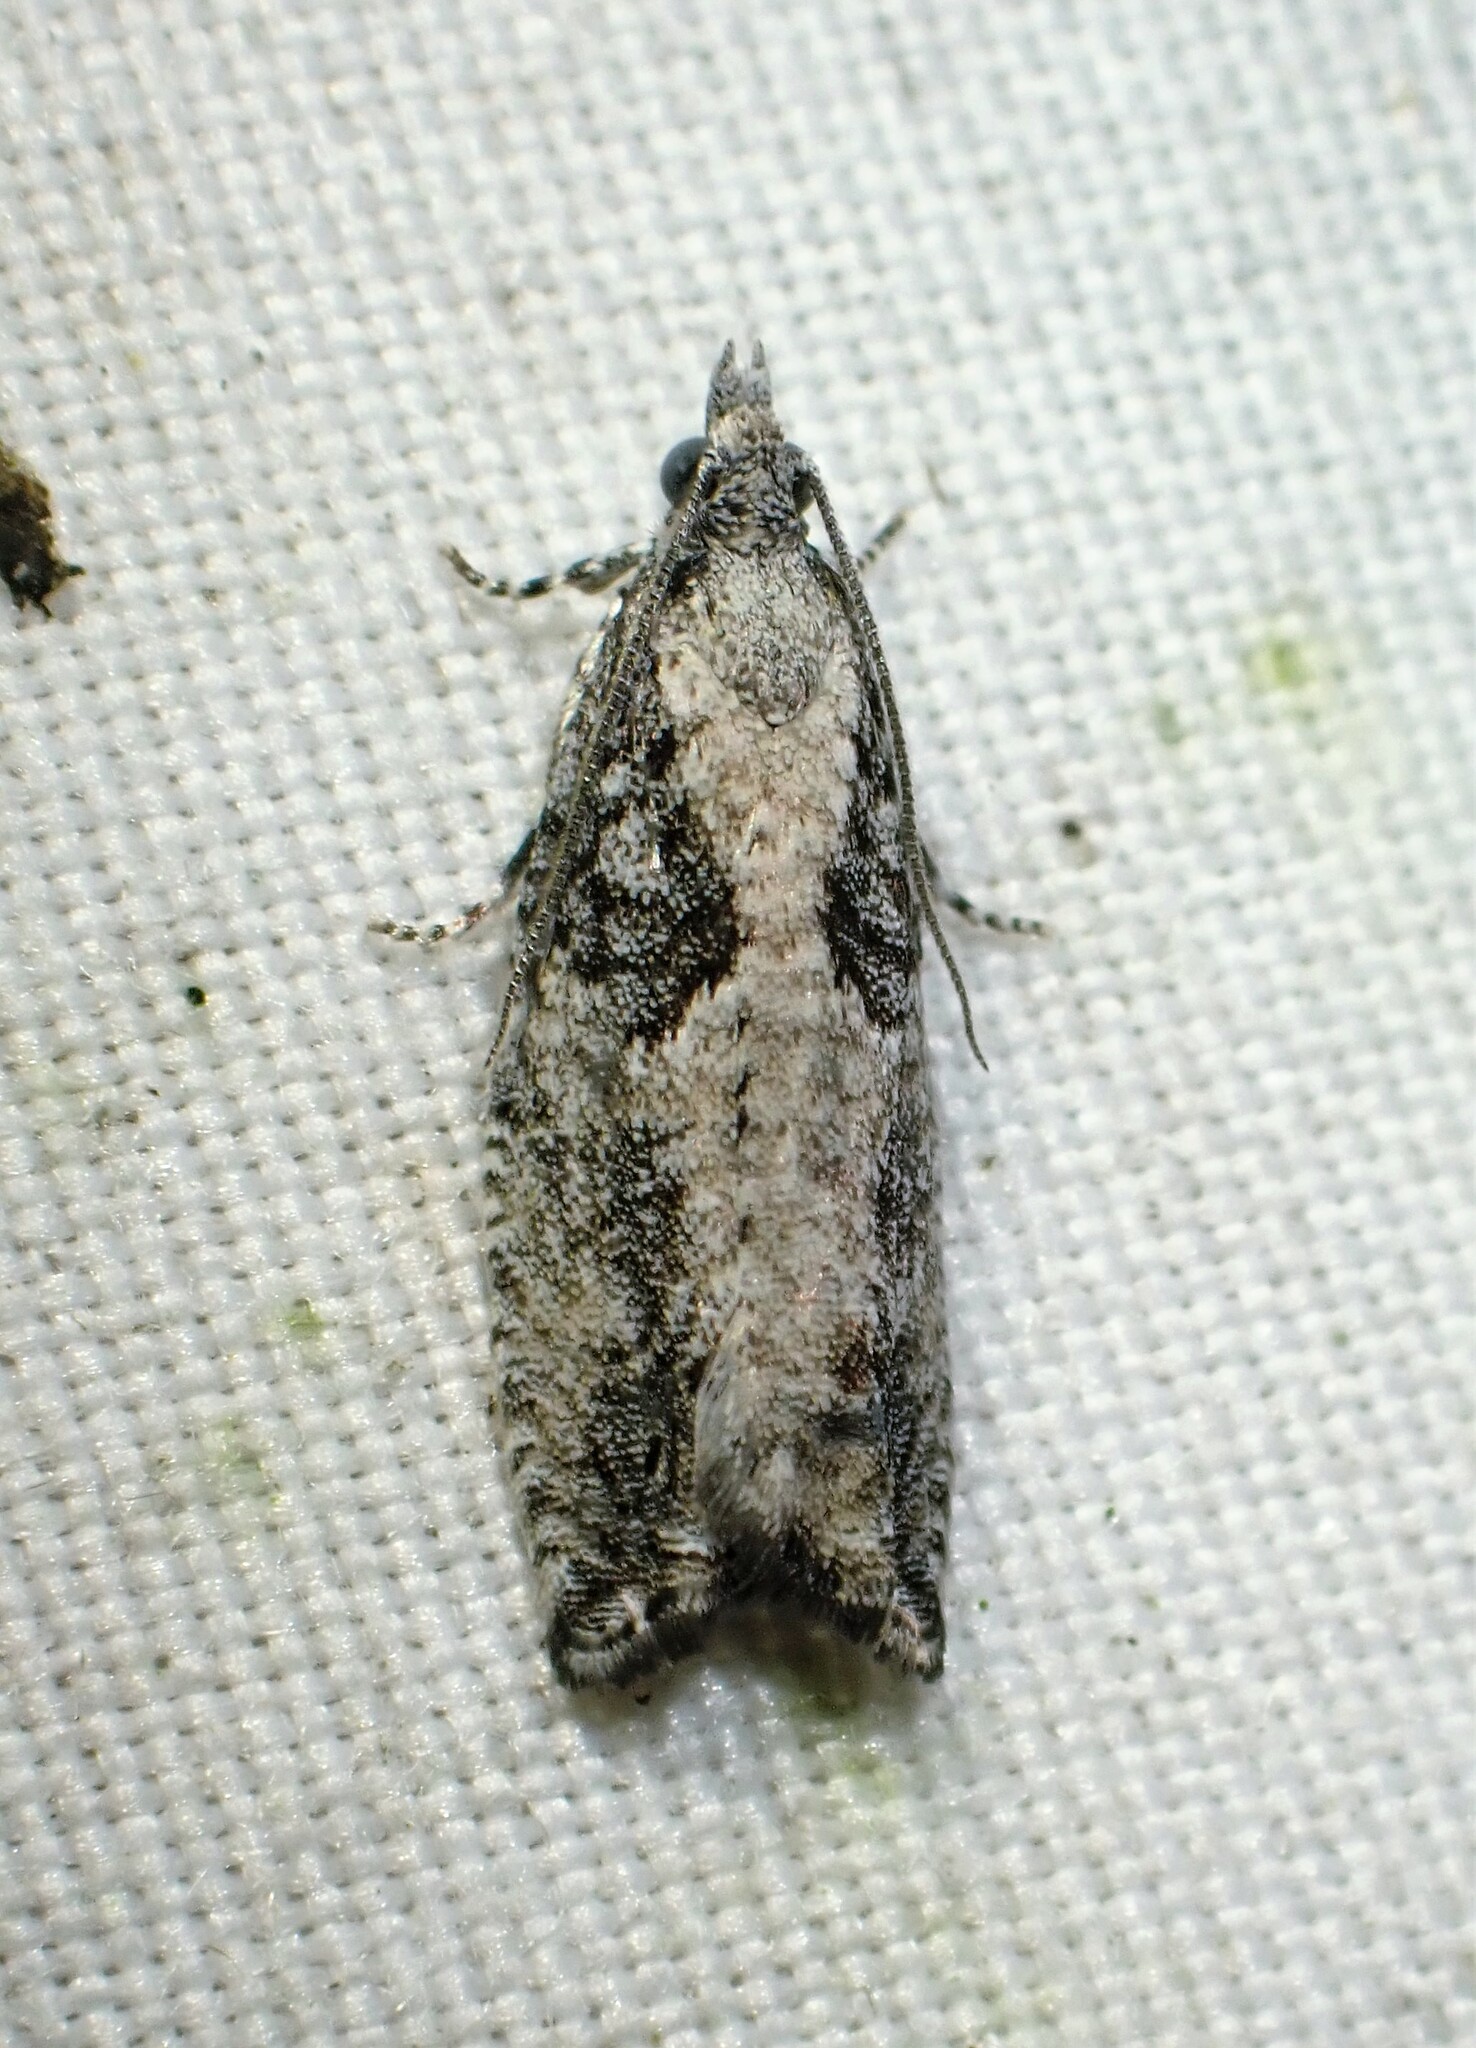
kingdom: Animalia
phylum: Arthropoda
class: Insecta
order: Lepidoptera
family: Tortricidae
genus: Epinotia
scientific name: Epinotia cinereana
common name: Grey aspen bell
